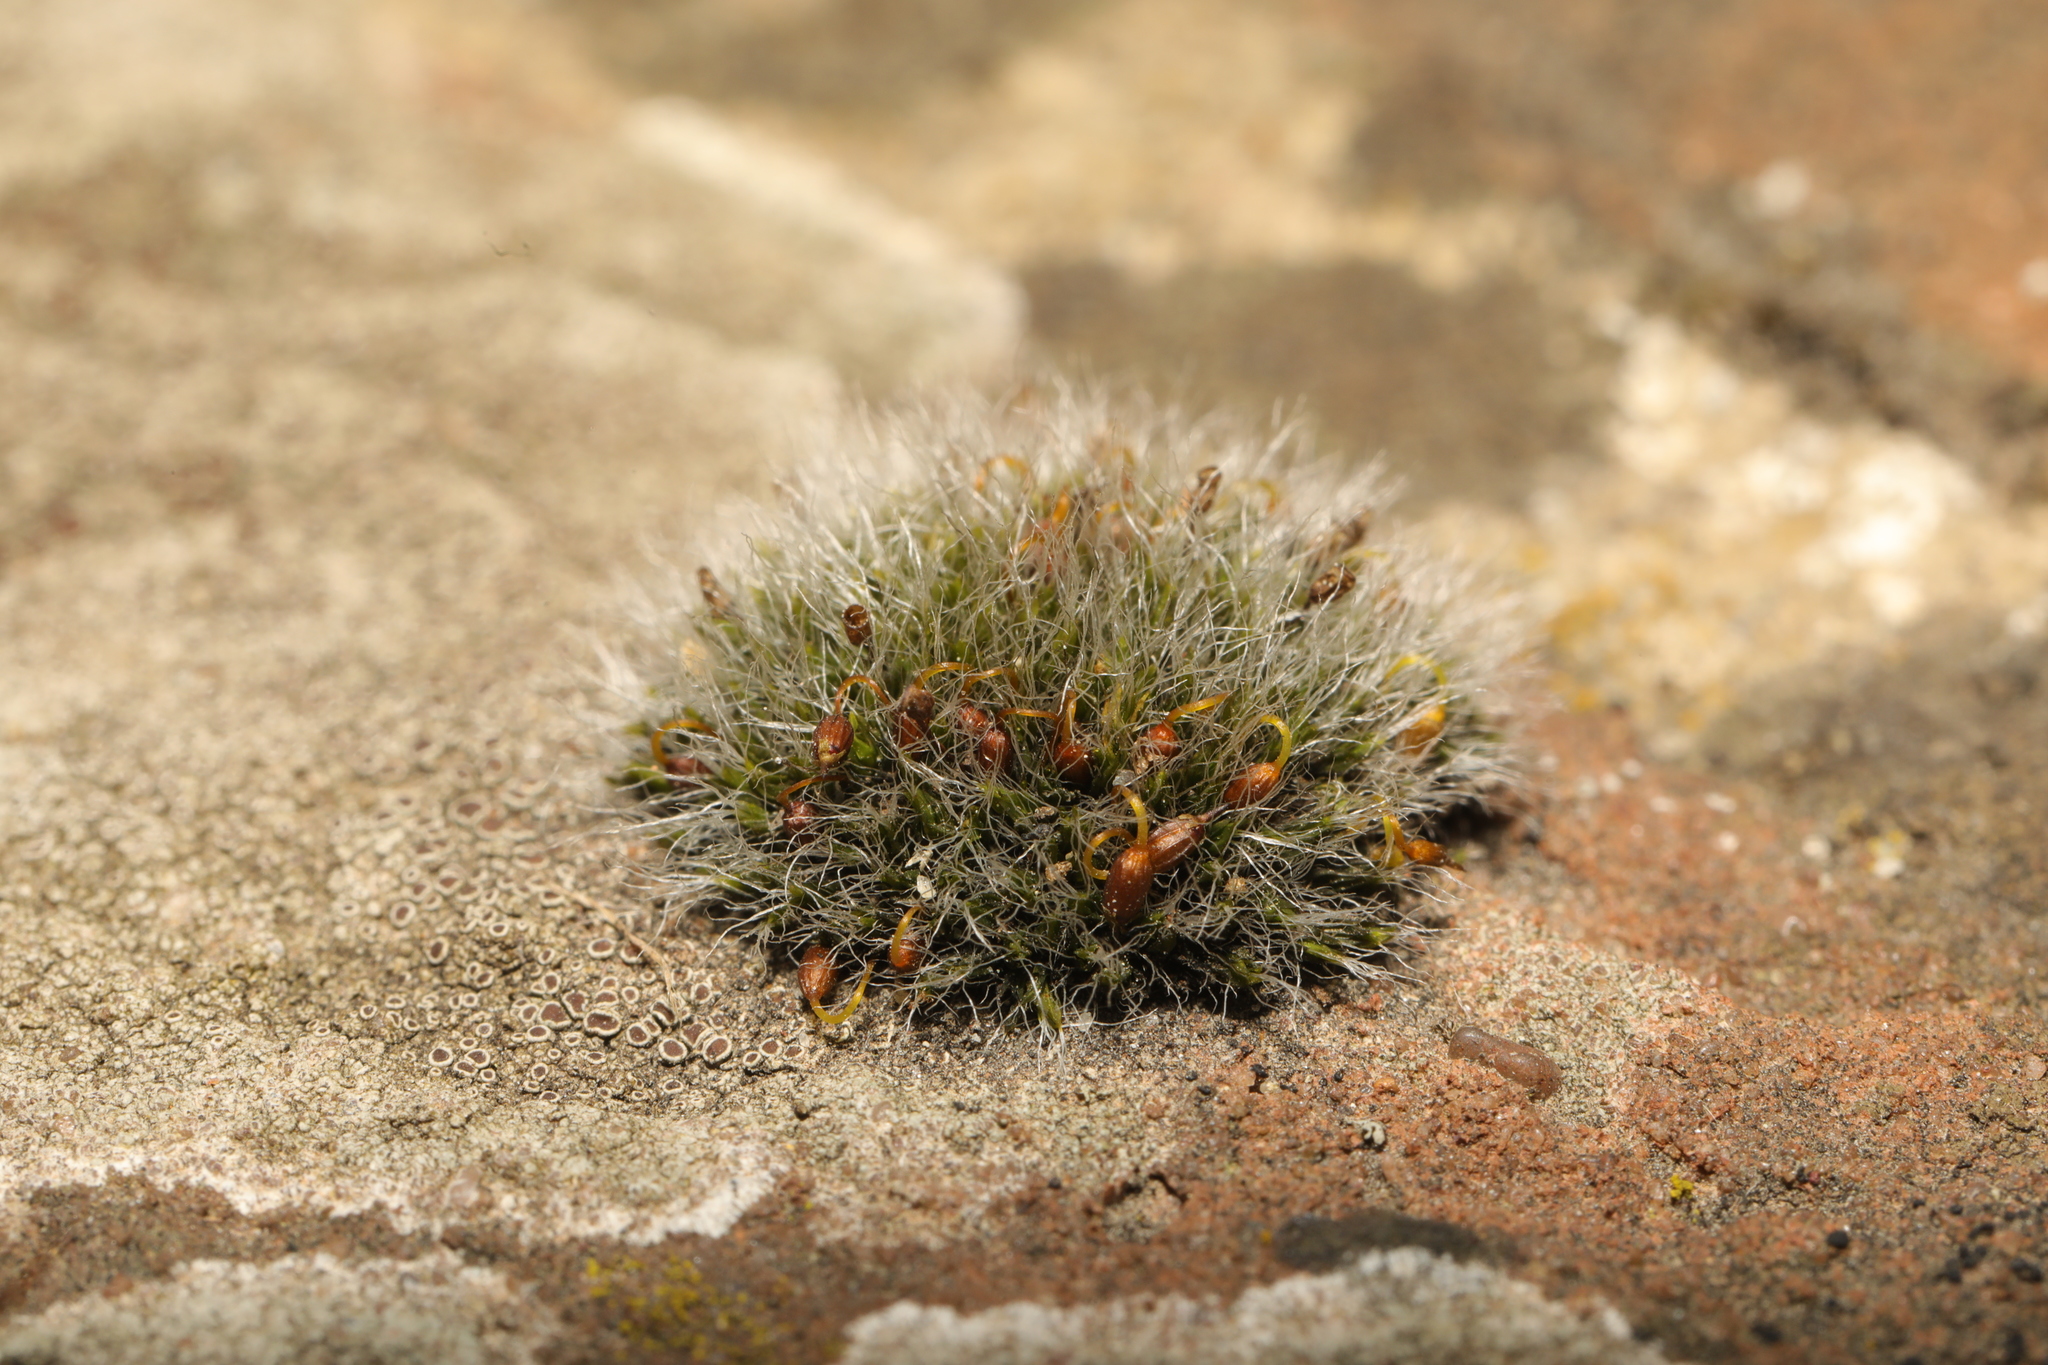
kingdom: Plantae
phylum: Bryophyta
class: Bryopsida
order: Grimmiales
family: Grimmiaceae
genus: Grimmia
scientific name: Grimmia pulvinata
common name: Grey-cushioned grimmia
